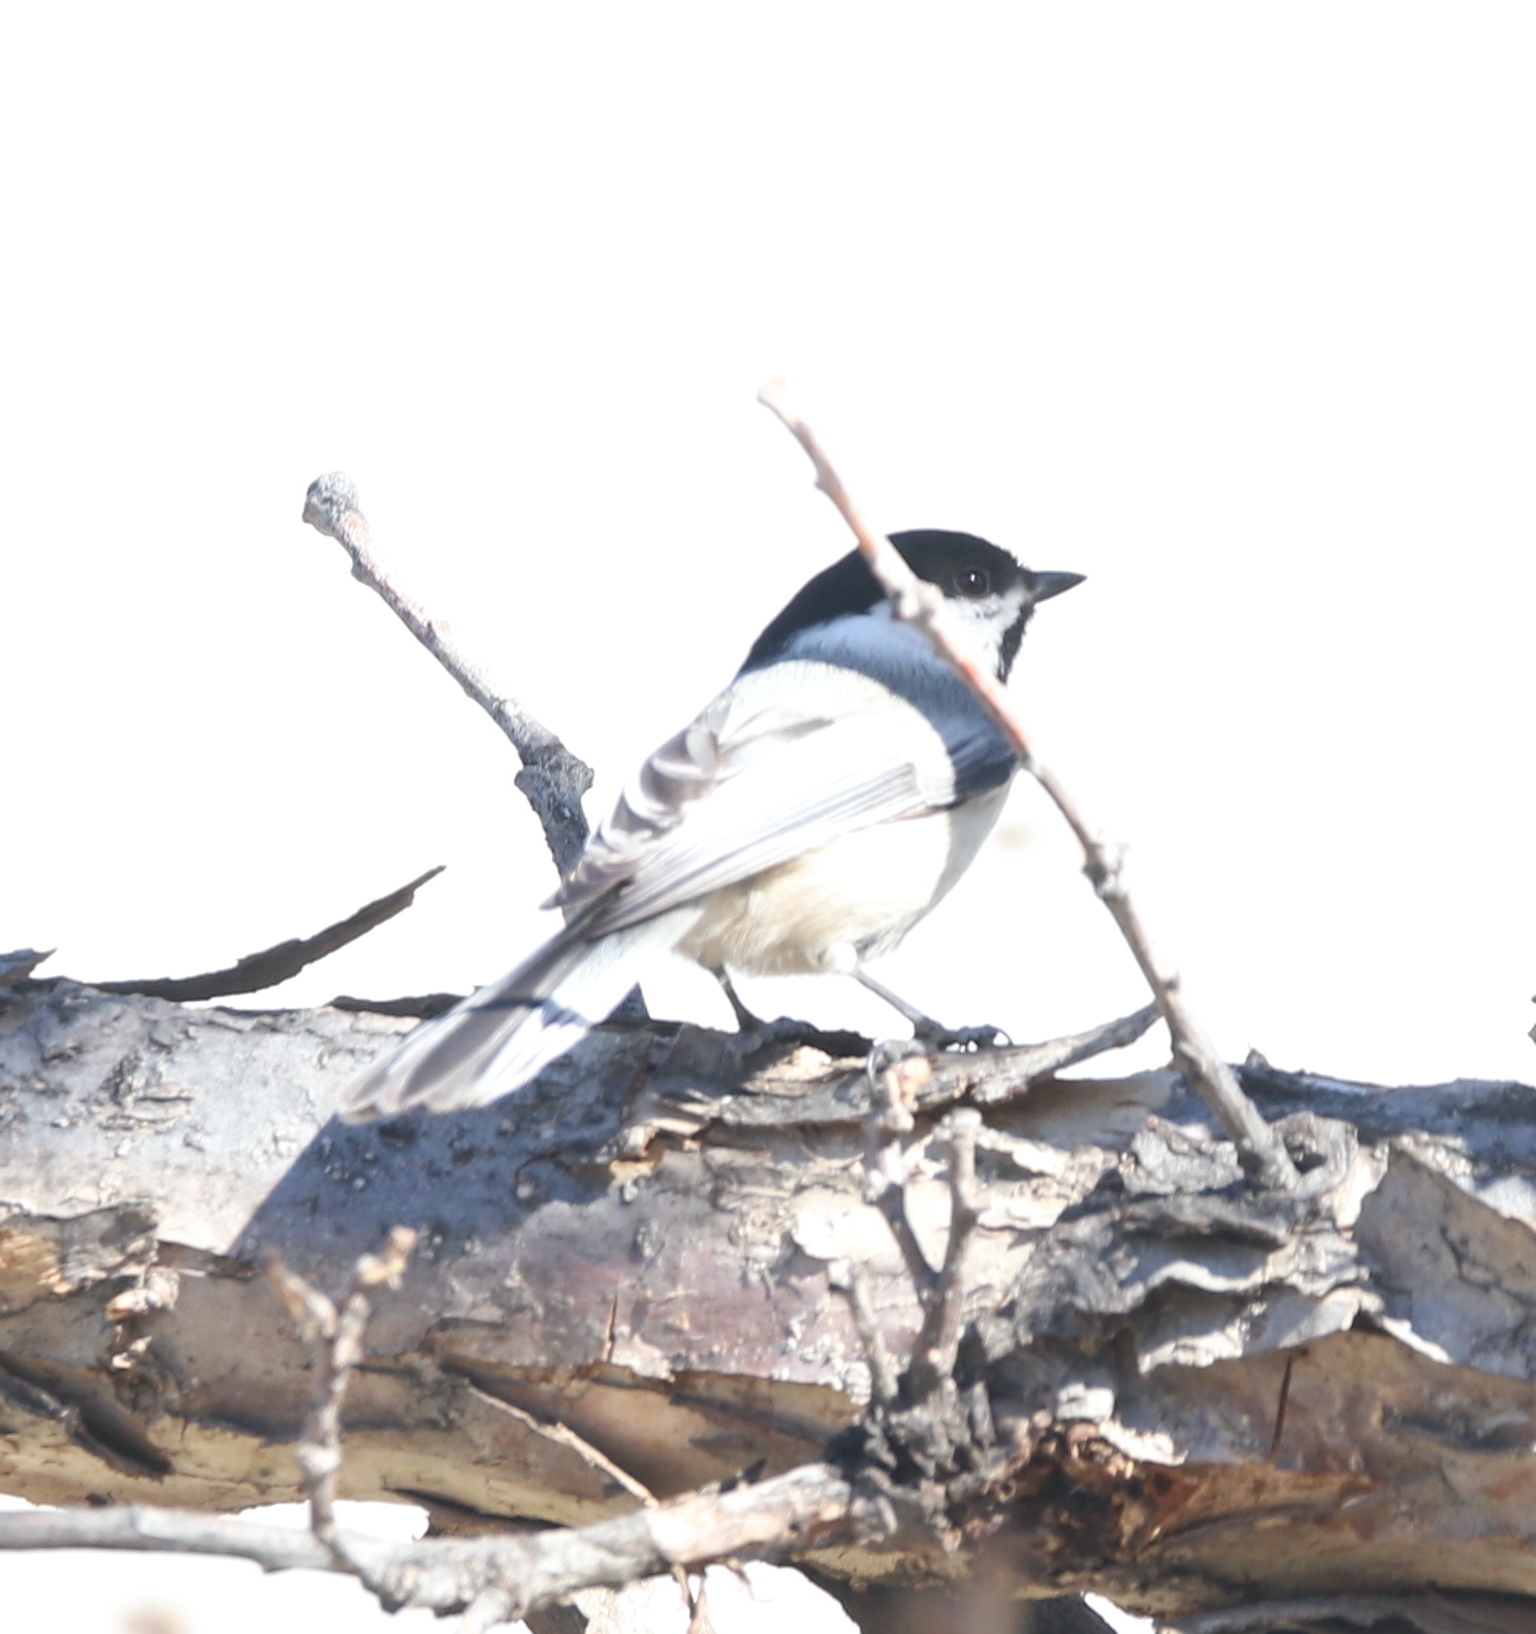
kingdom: Animalia
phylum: Chordata
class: Aves
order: Passeriformes
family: Paridae
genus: Poecile
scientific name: Poecile atricapillus
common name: Black-capped chickadee
